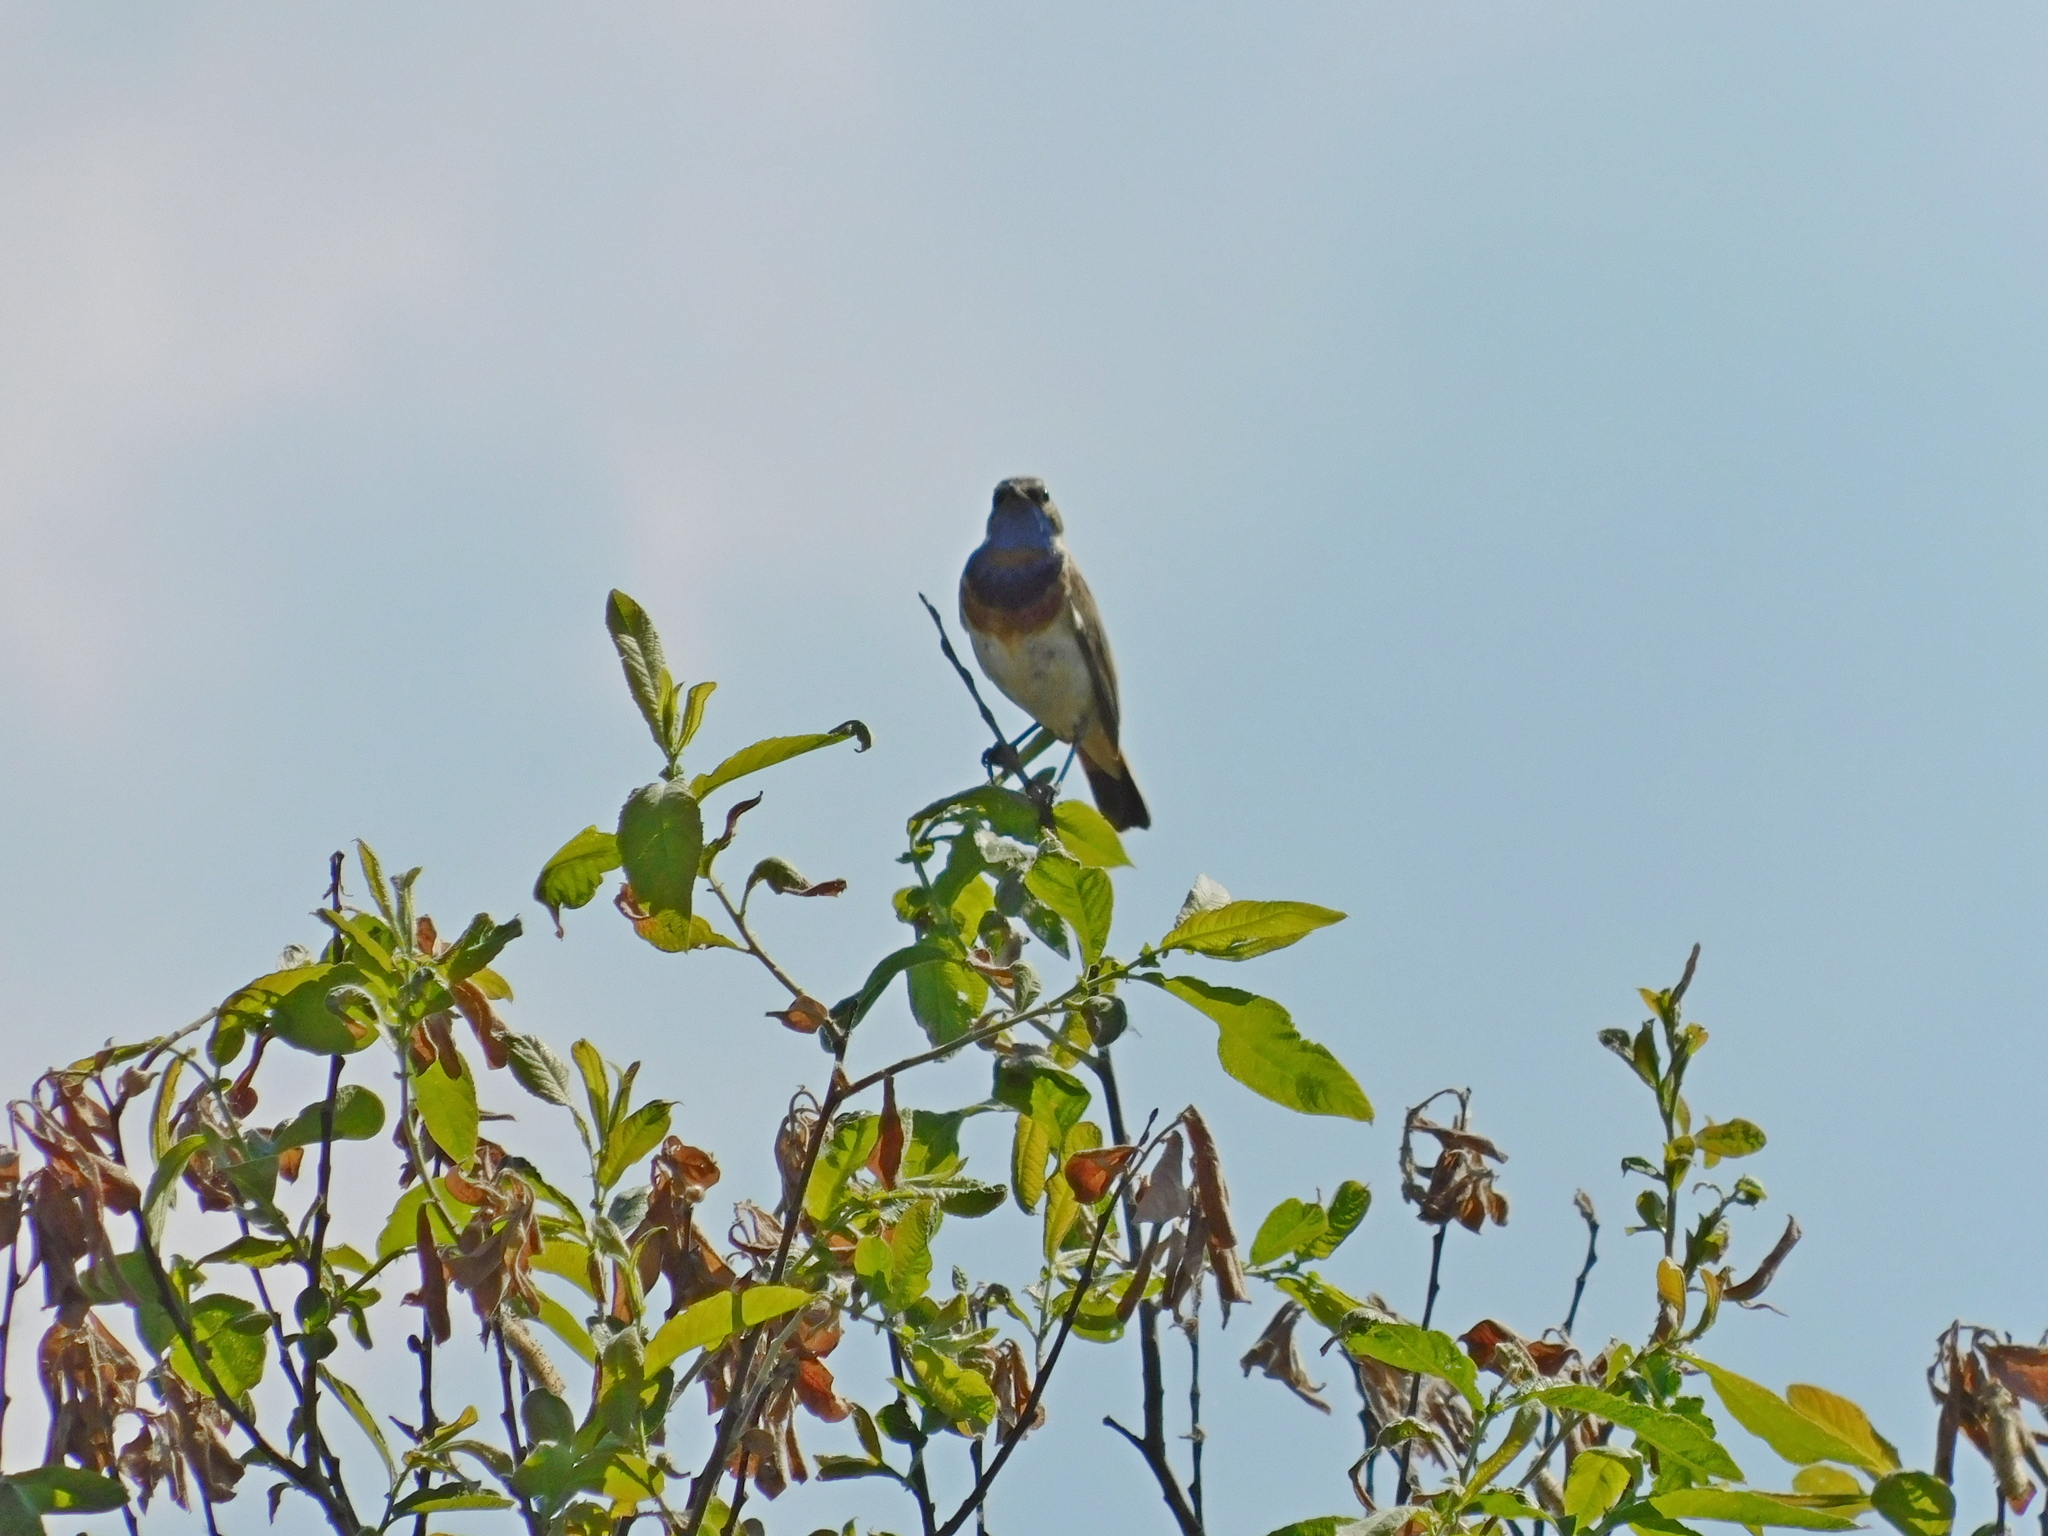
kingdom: Animalia
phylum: Chordata
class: Aves
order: Passeriformes
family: Muscicapidae
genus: Luscinia
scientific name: Luscinia svecica
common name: Bluethroat
